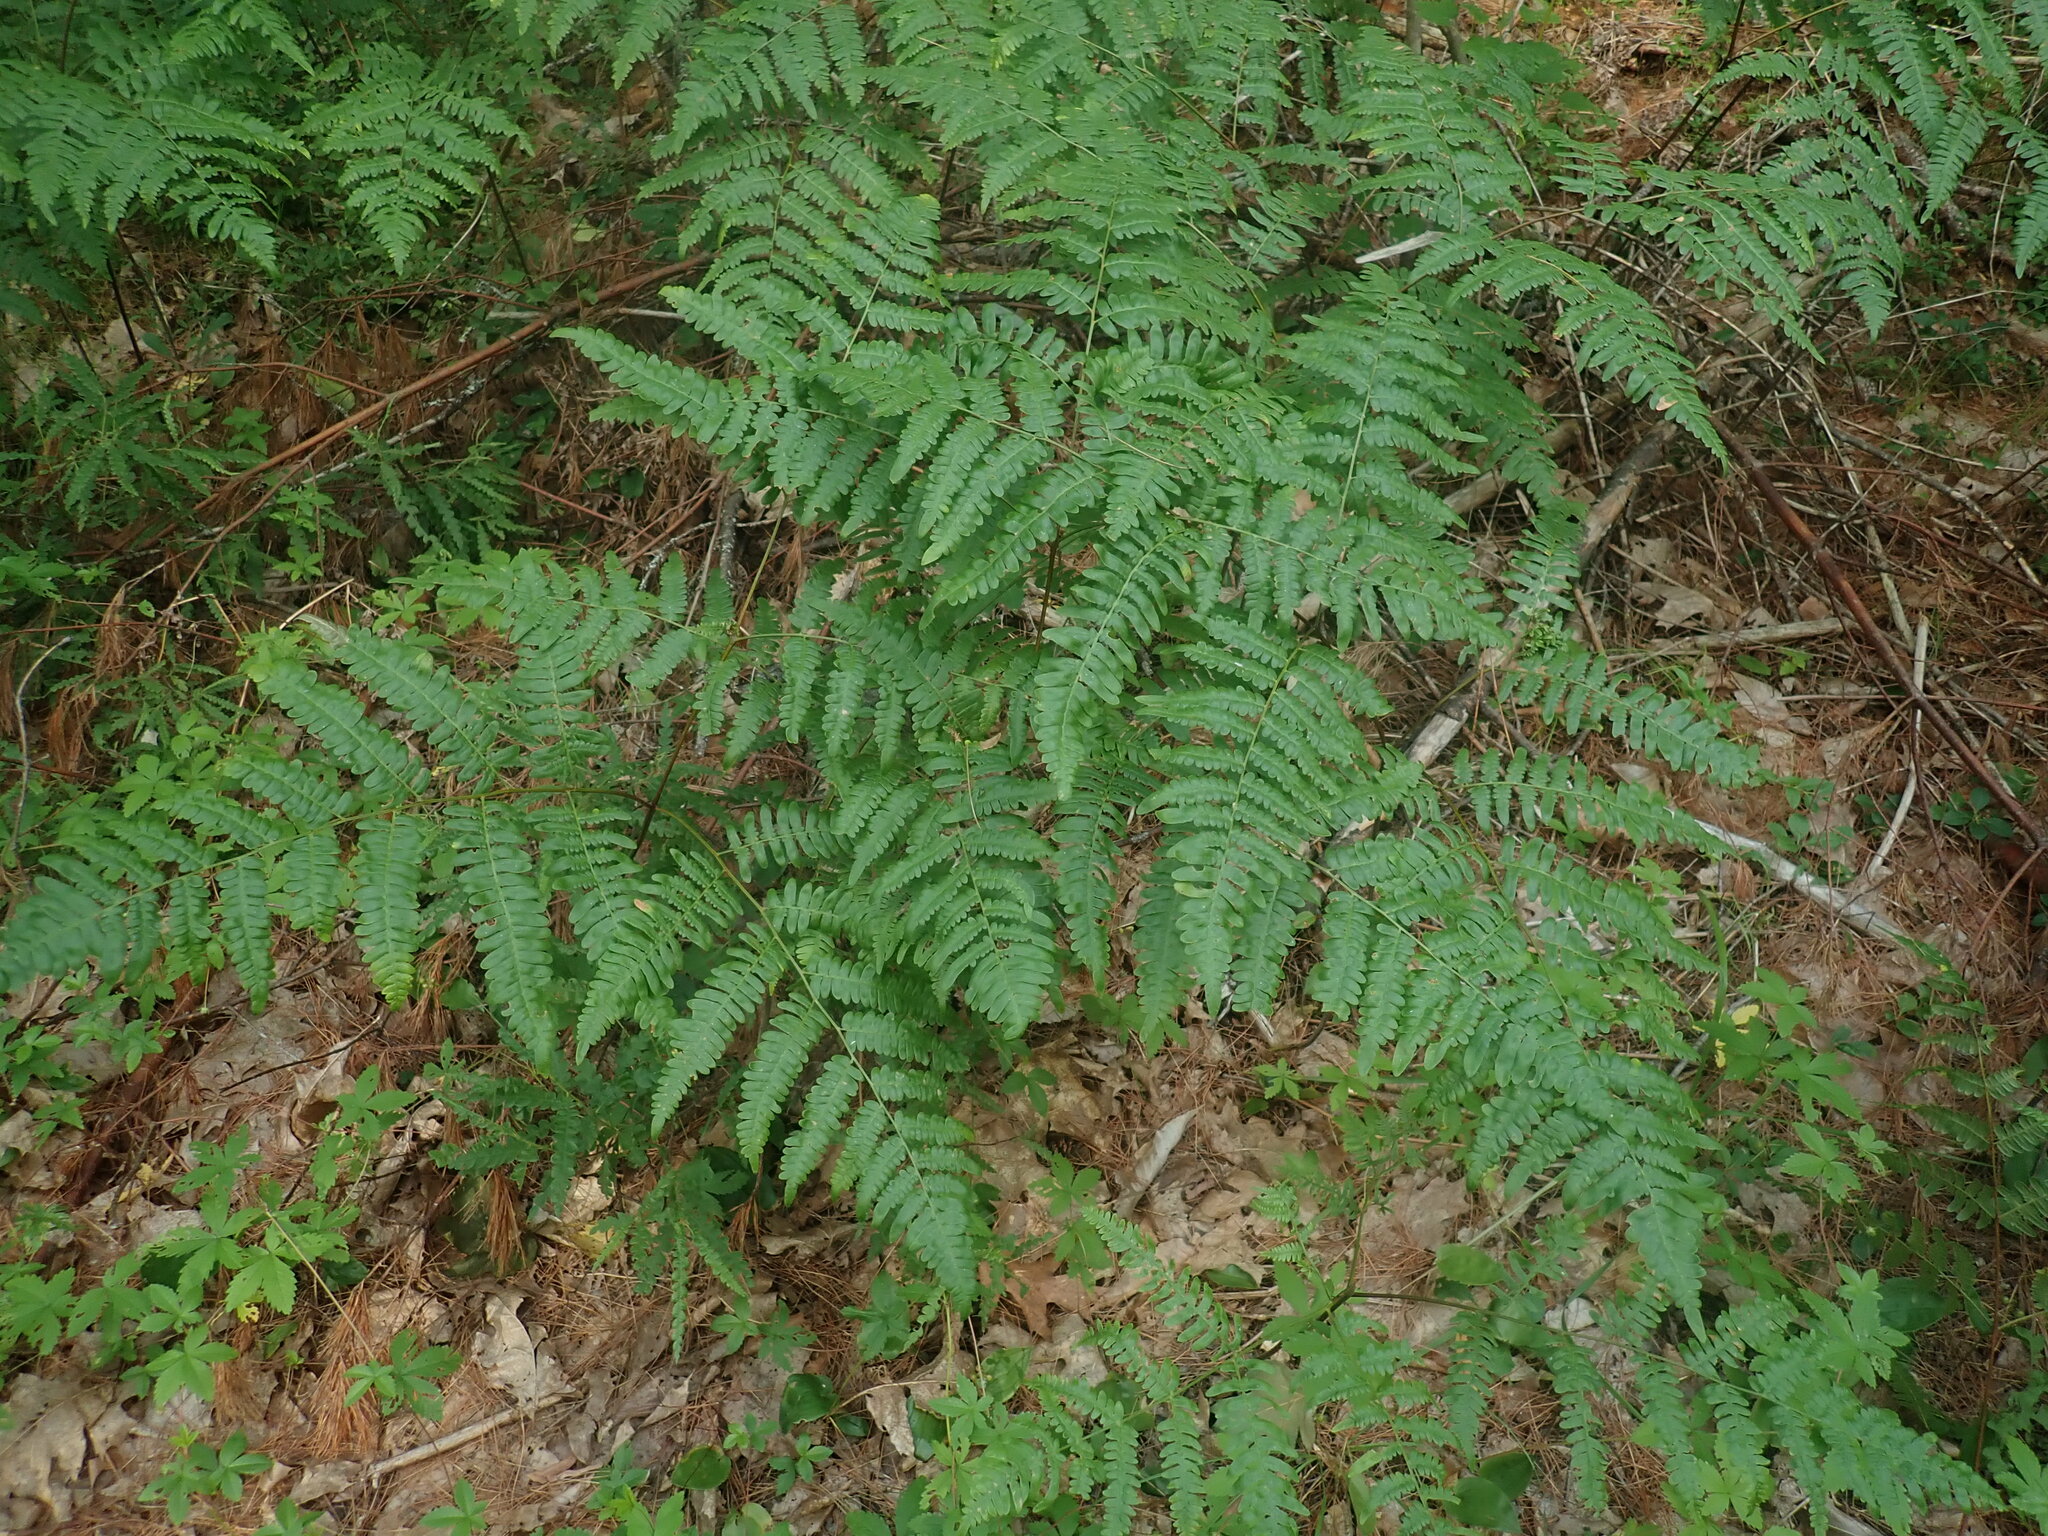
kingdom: Plantae
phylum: Tracheophyta
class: Polypodiopsida
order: Polypodiales
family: Dennstaedtiaceae
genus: Pteridium
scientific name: Pteridium aquilinum
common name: Bracken
